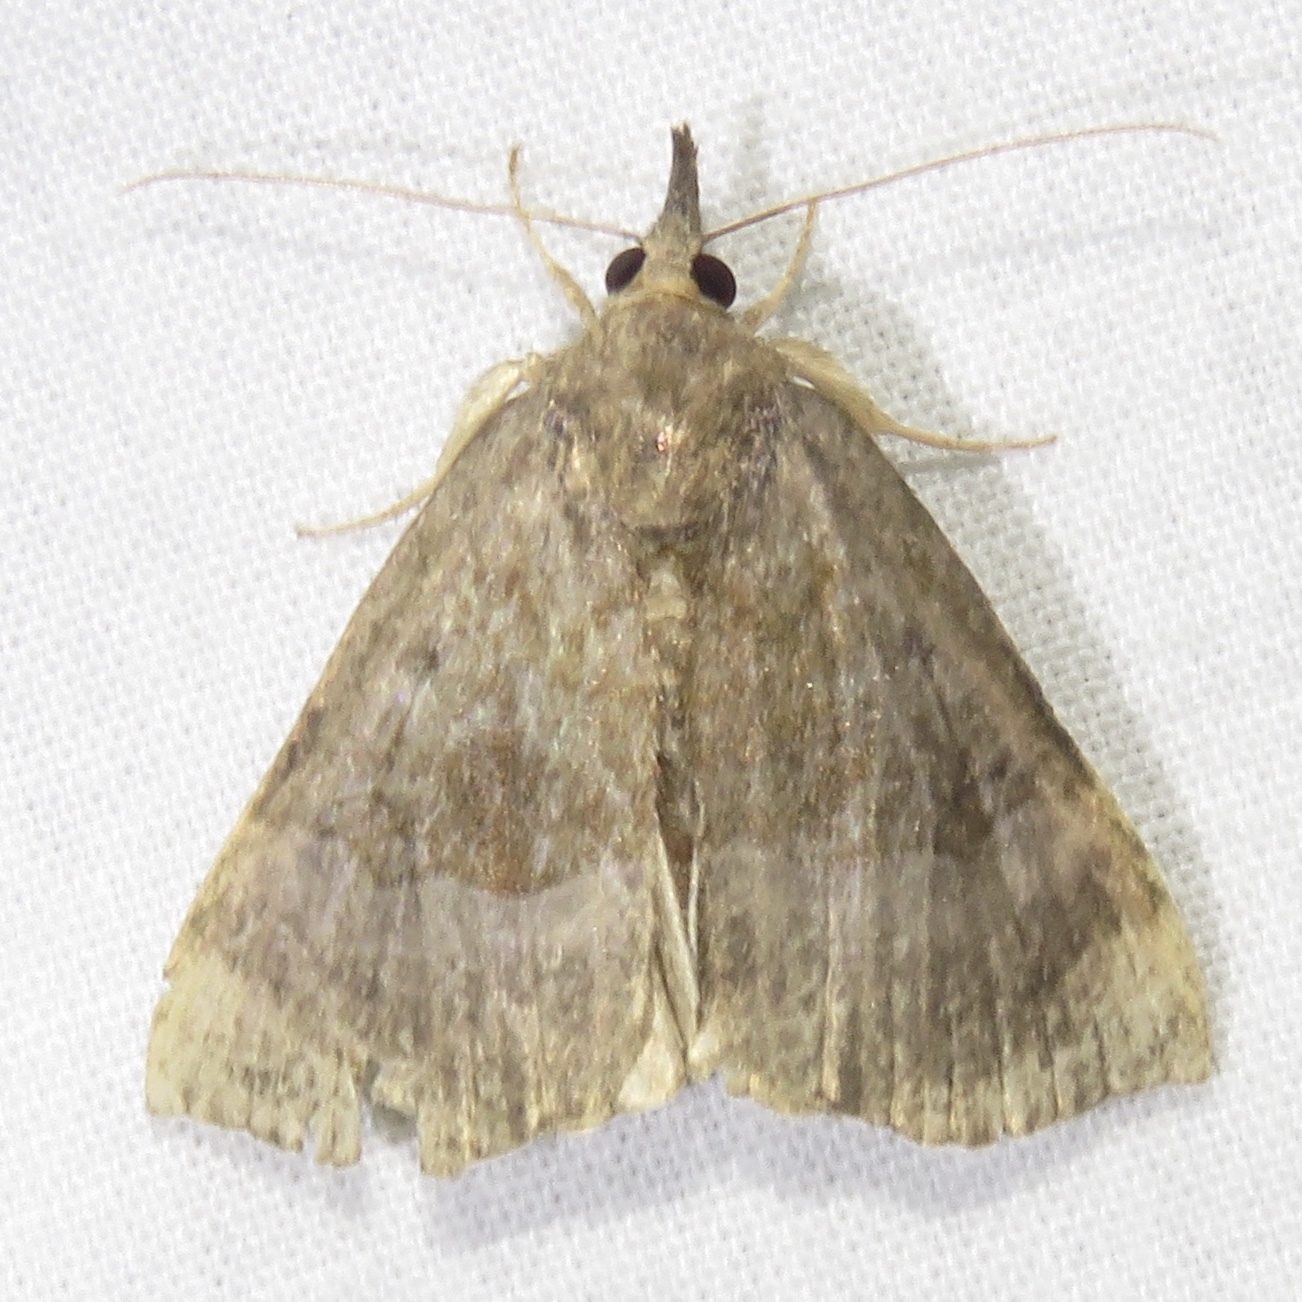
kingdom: Animalia
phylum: Arthropoda
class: Insecta
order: Lepidoptera
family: Erebidae
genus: Hypena
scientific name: Hypena madefactalis
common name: Gray-edged snout
